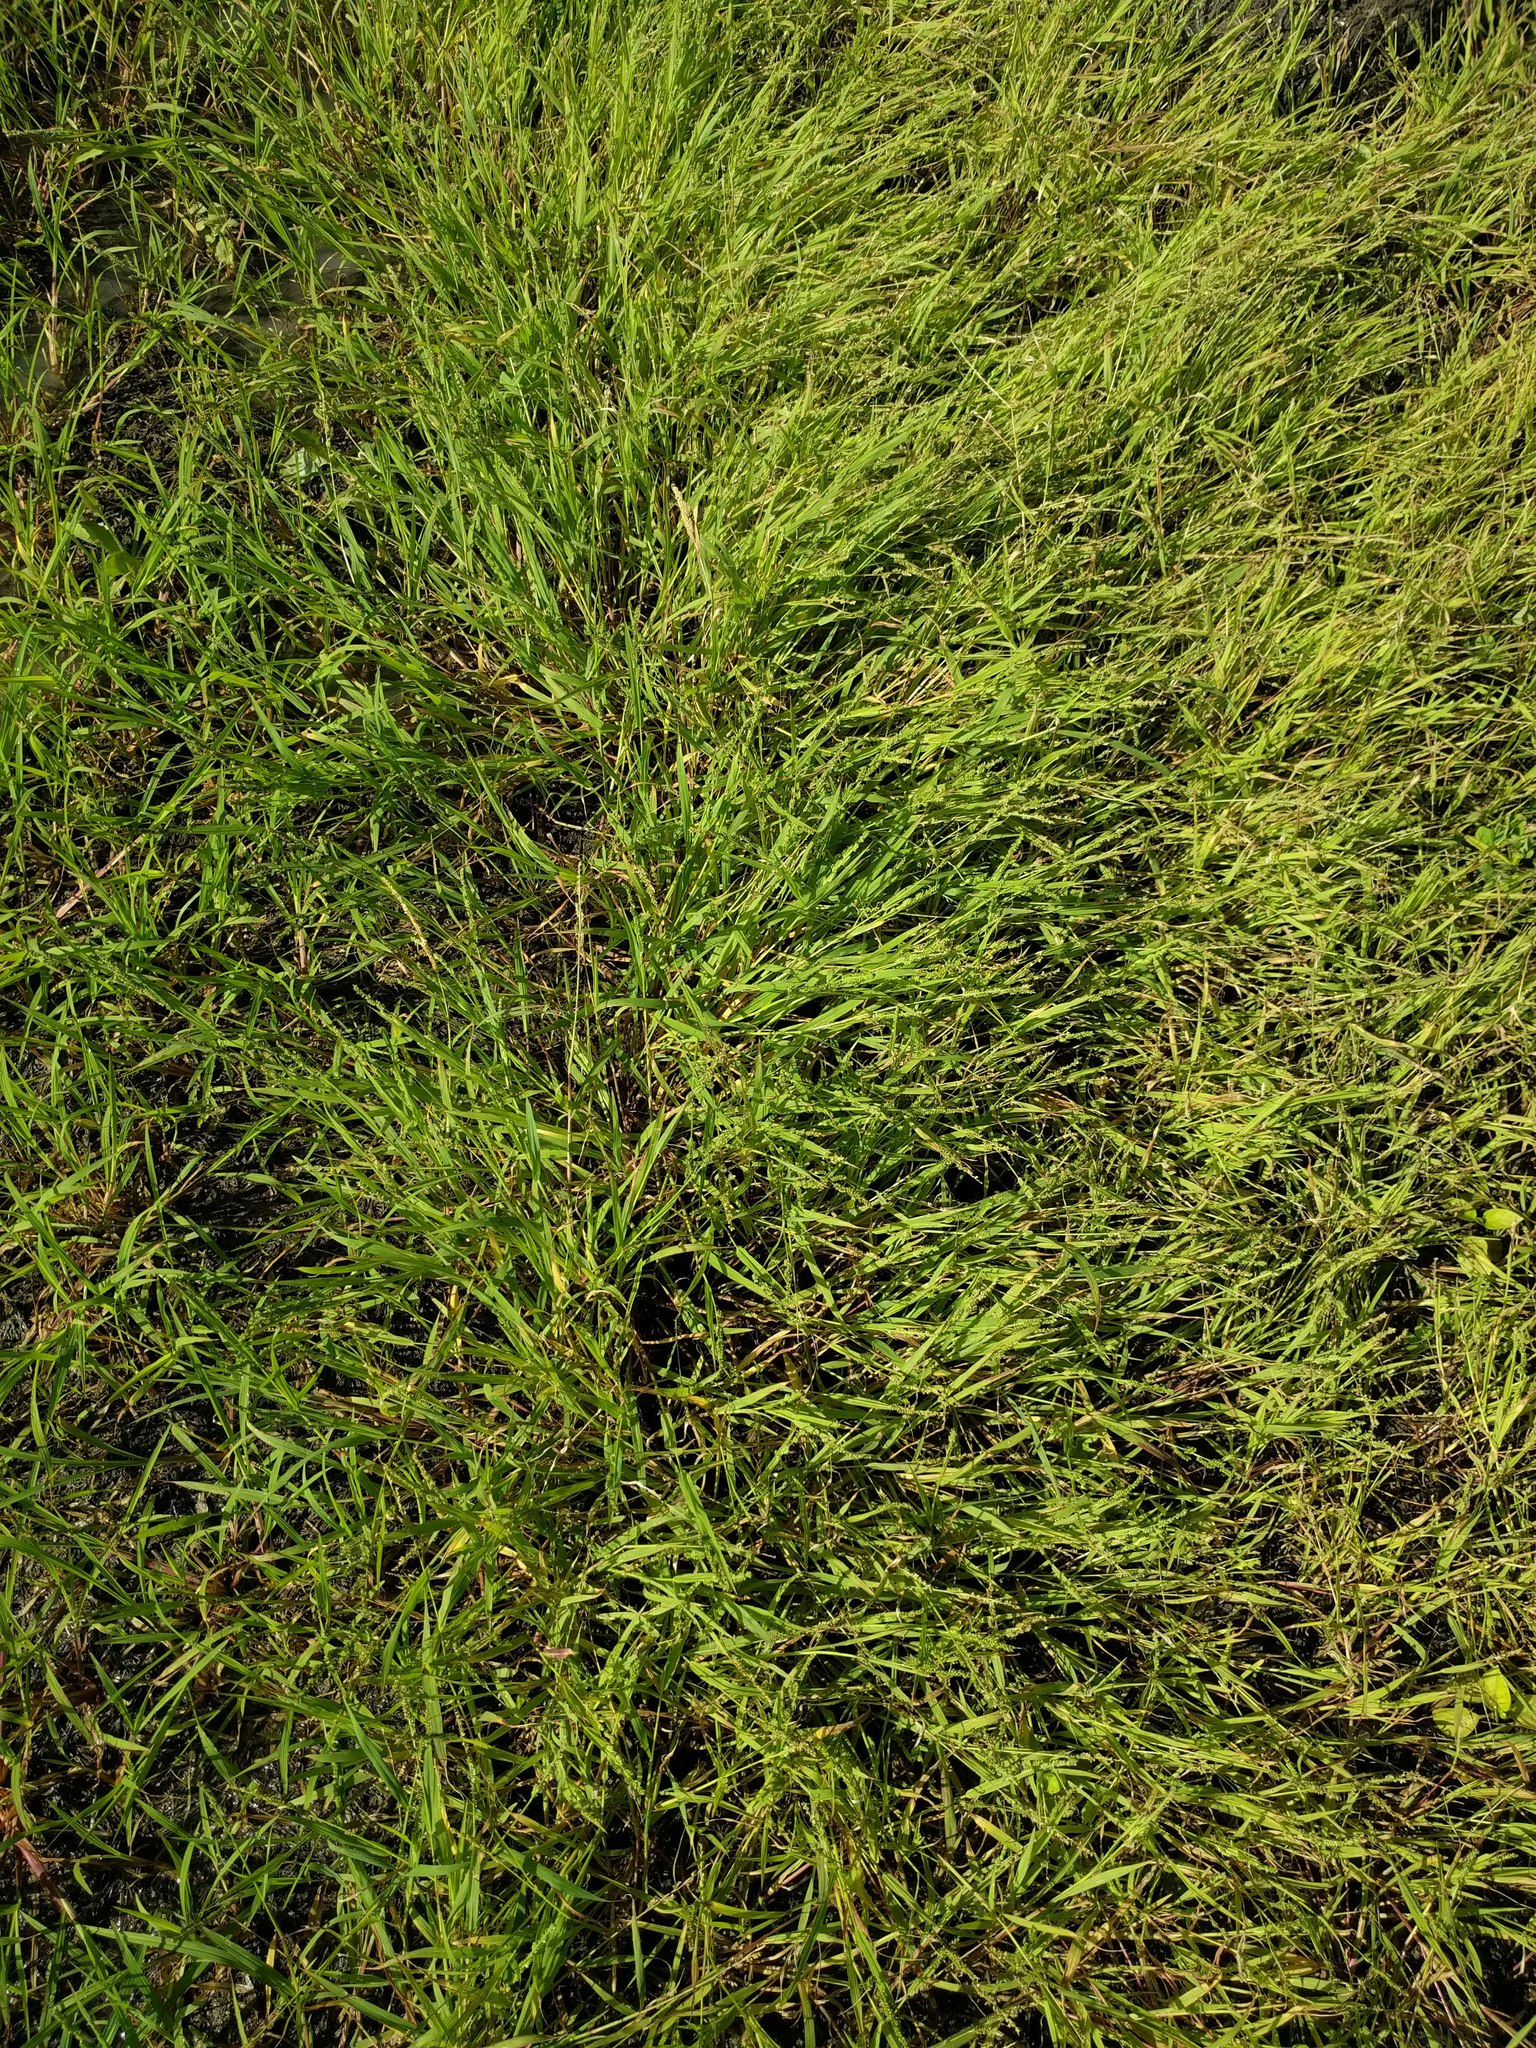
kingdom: Plantae
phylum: Tracheophyta
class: Liliopsida
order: Poales
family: Poaceae
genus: Echinochloa
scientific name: Echinochloa colonum
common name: Jungle rice
